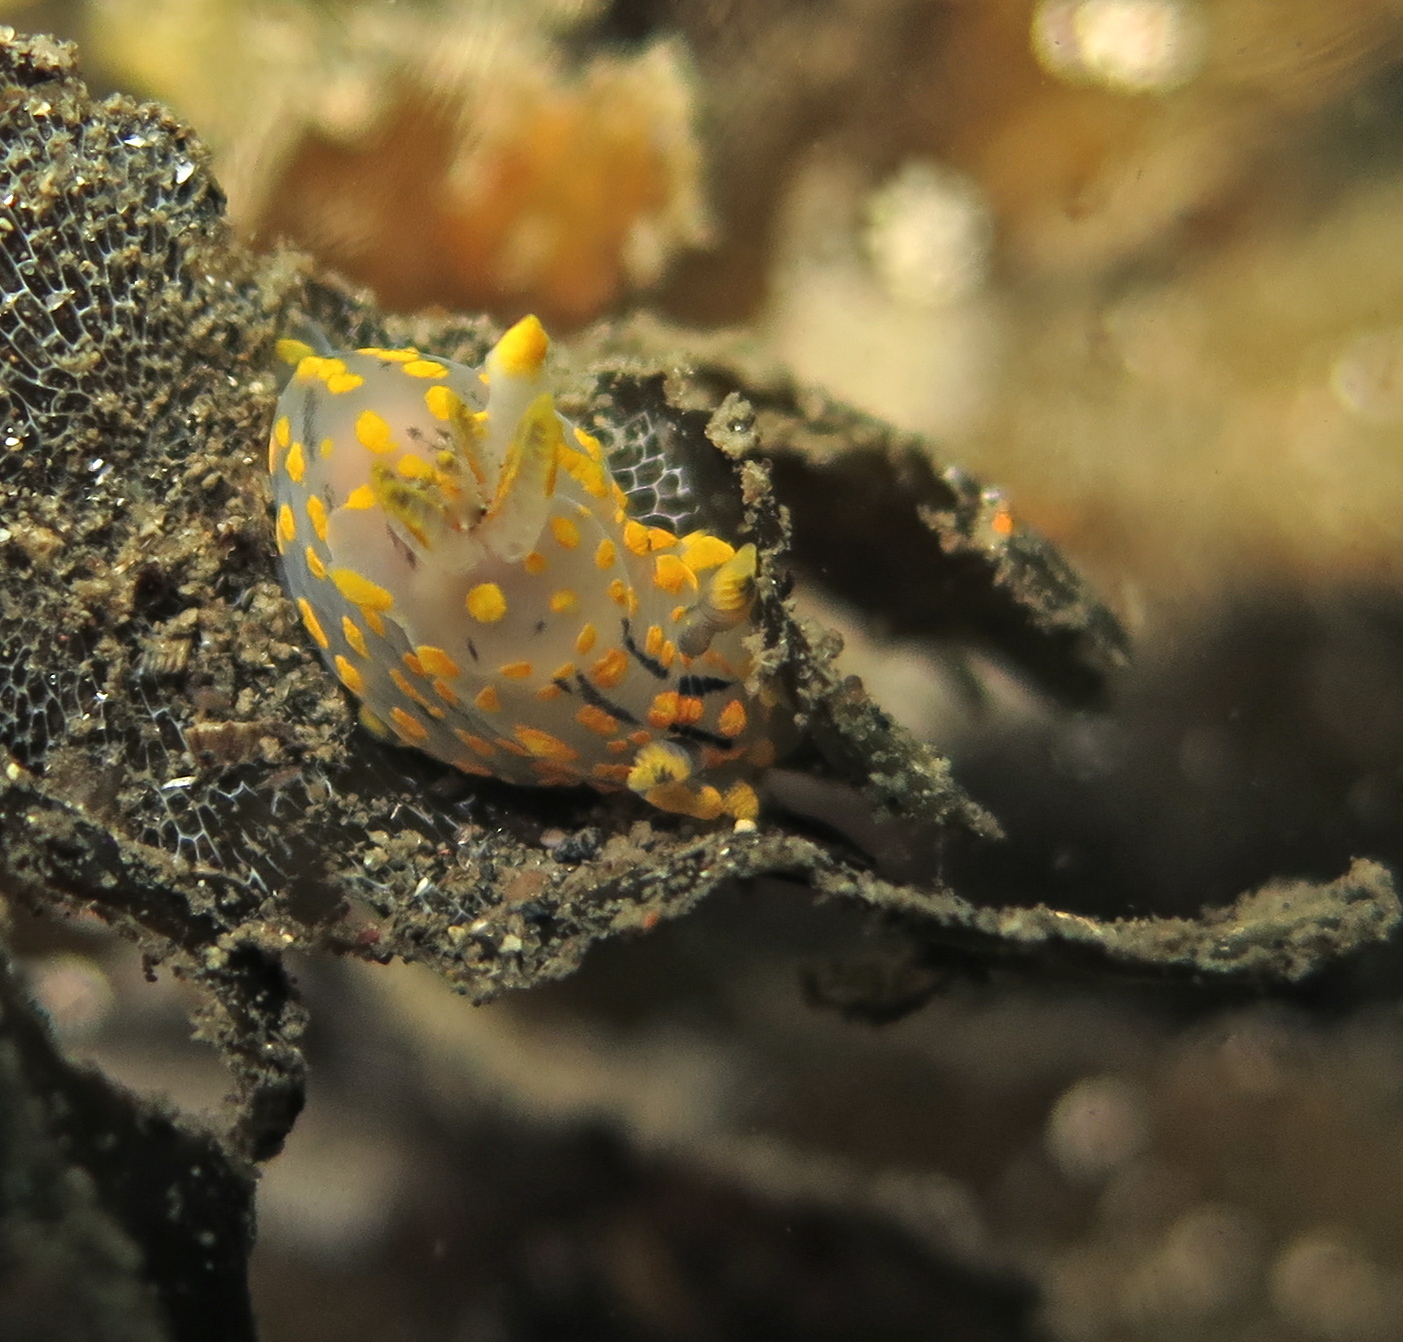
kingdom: Animalia
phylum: Mollusca
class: Gastropoda
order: Nudibranchia
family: Polyceridae
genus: Polycera
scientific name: Polycera quadrilineata
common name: Four-striped polycera
